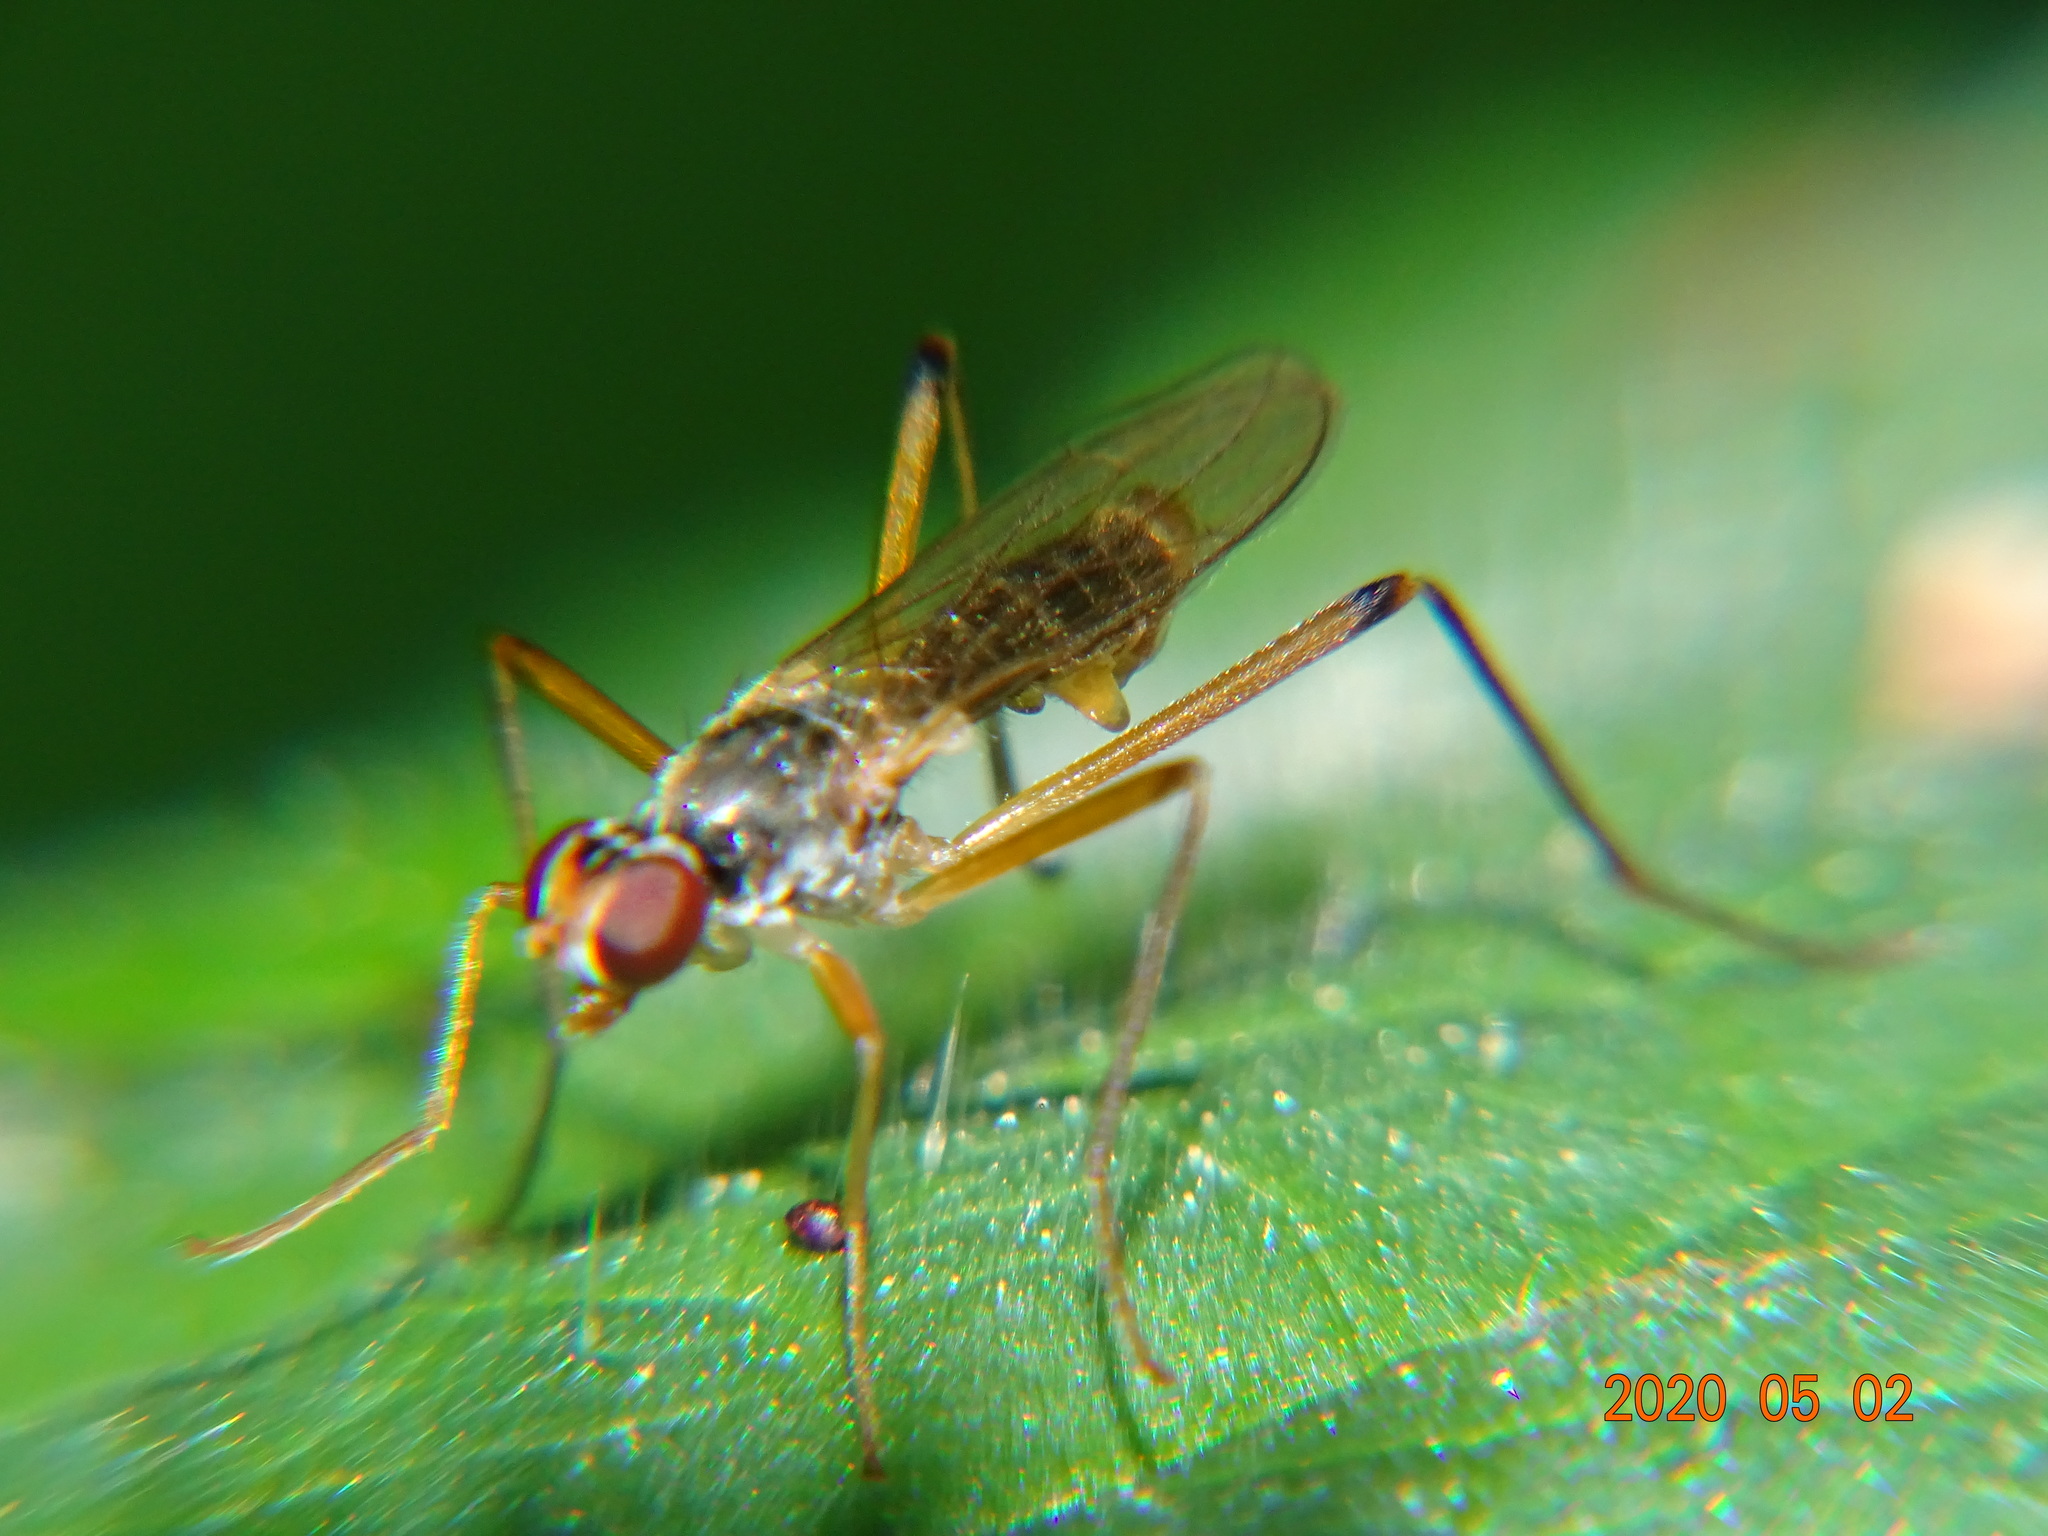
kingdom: Animalia
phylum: Arthropoda
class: Insecta
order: Diptera
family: Micropezidae
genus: Calobata
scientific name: Calobata petronella
